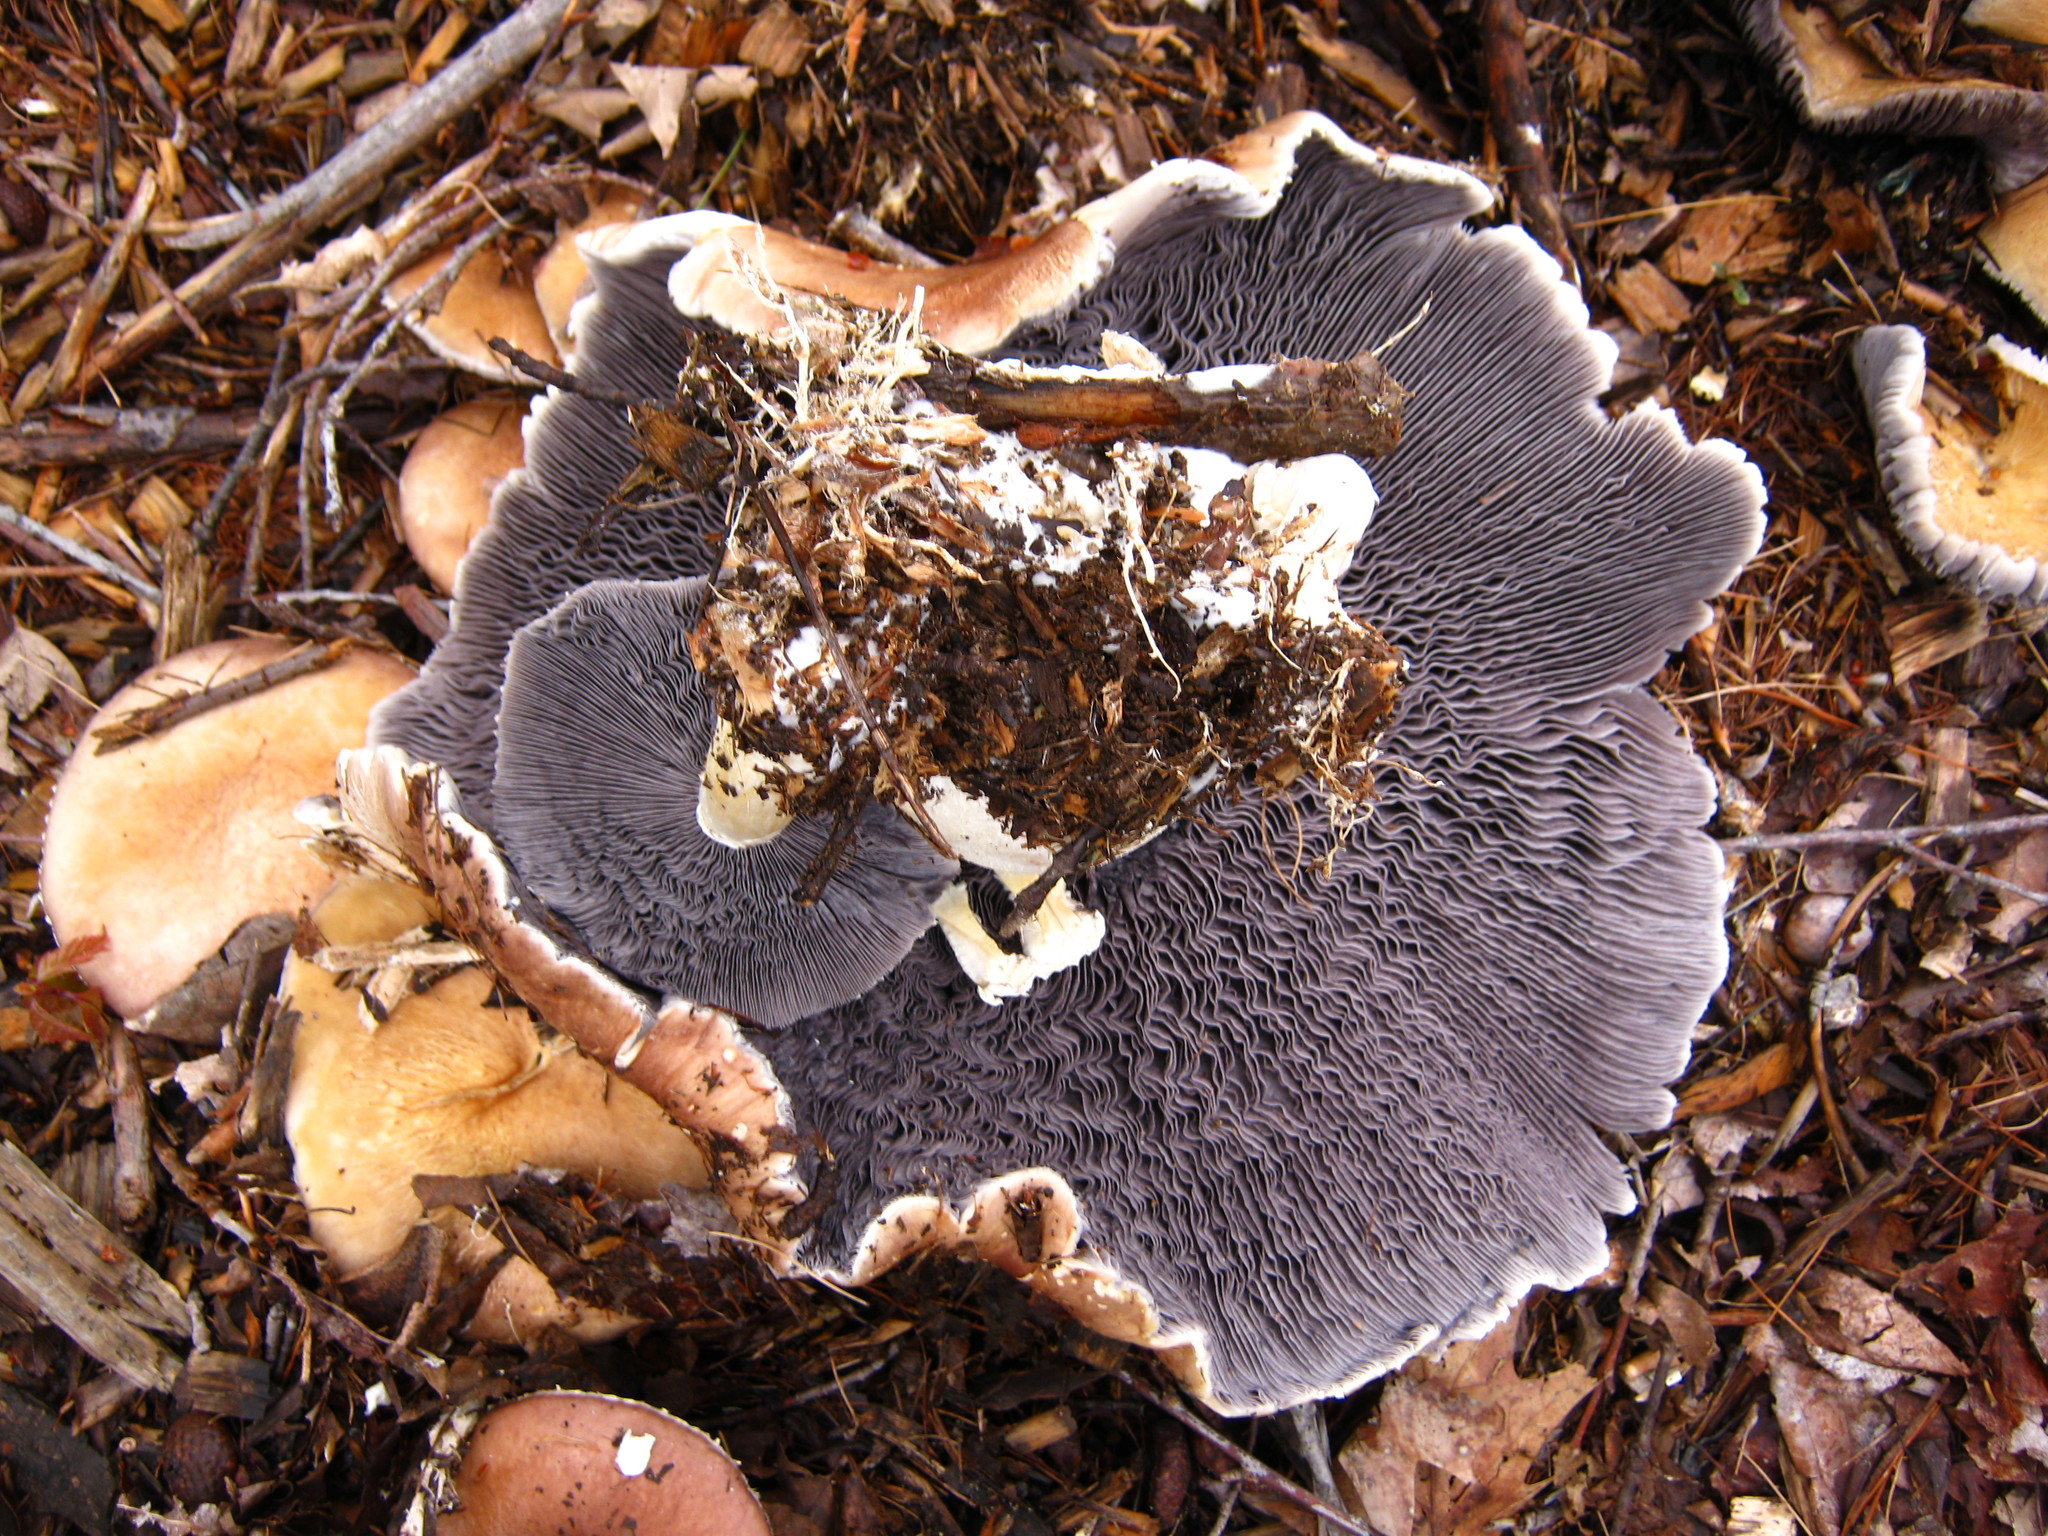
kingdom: Fungi
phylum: Basidiomycota
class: Agaricomycetes
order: Agaricales
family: Strophariaceae
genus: Stropharia
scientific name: Stropharia rugosoannulata
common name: Wine roundhead
